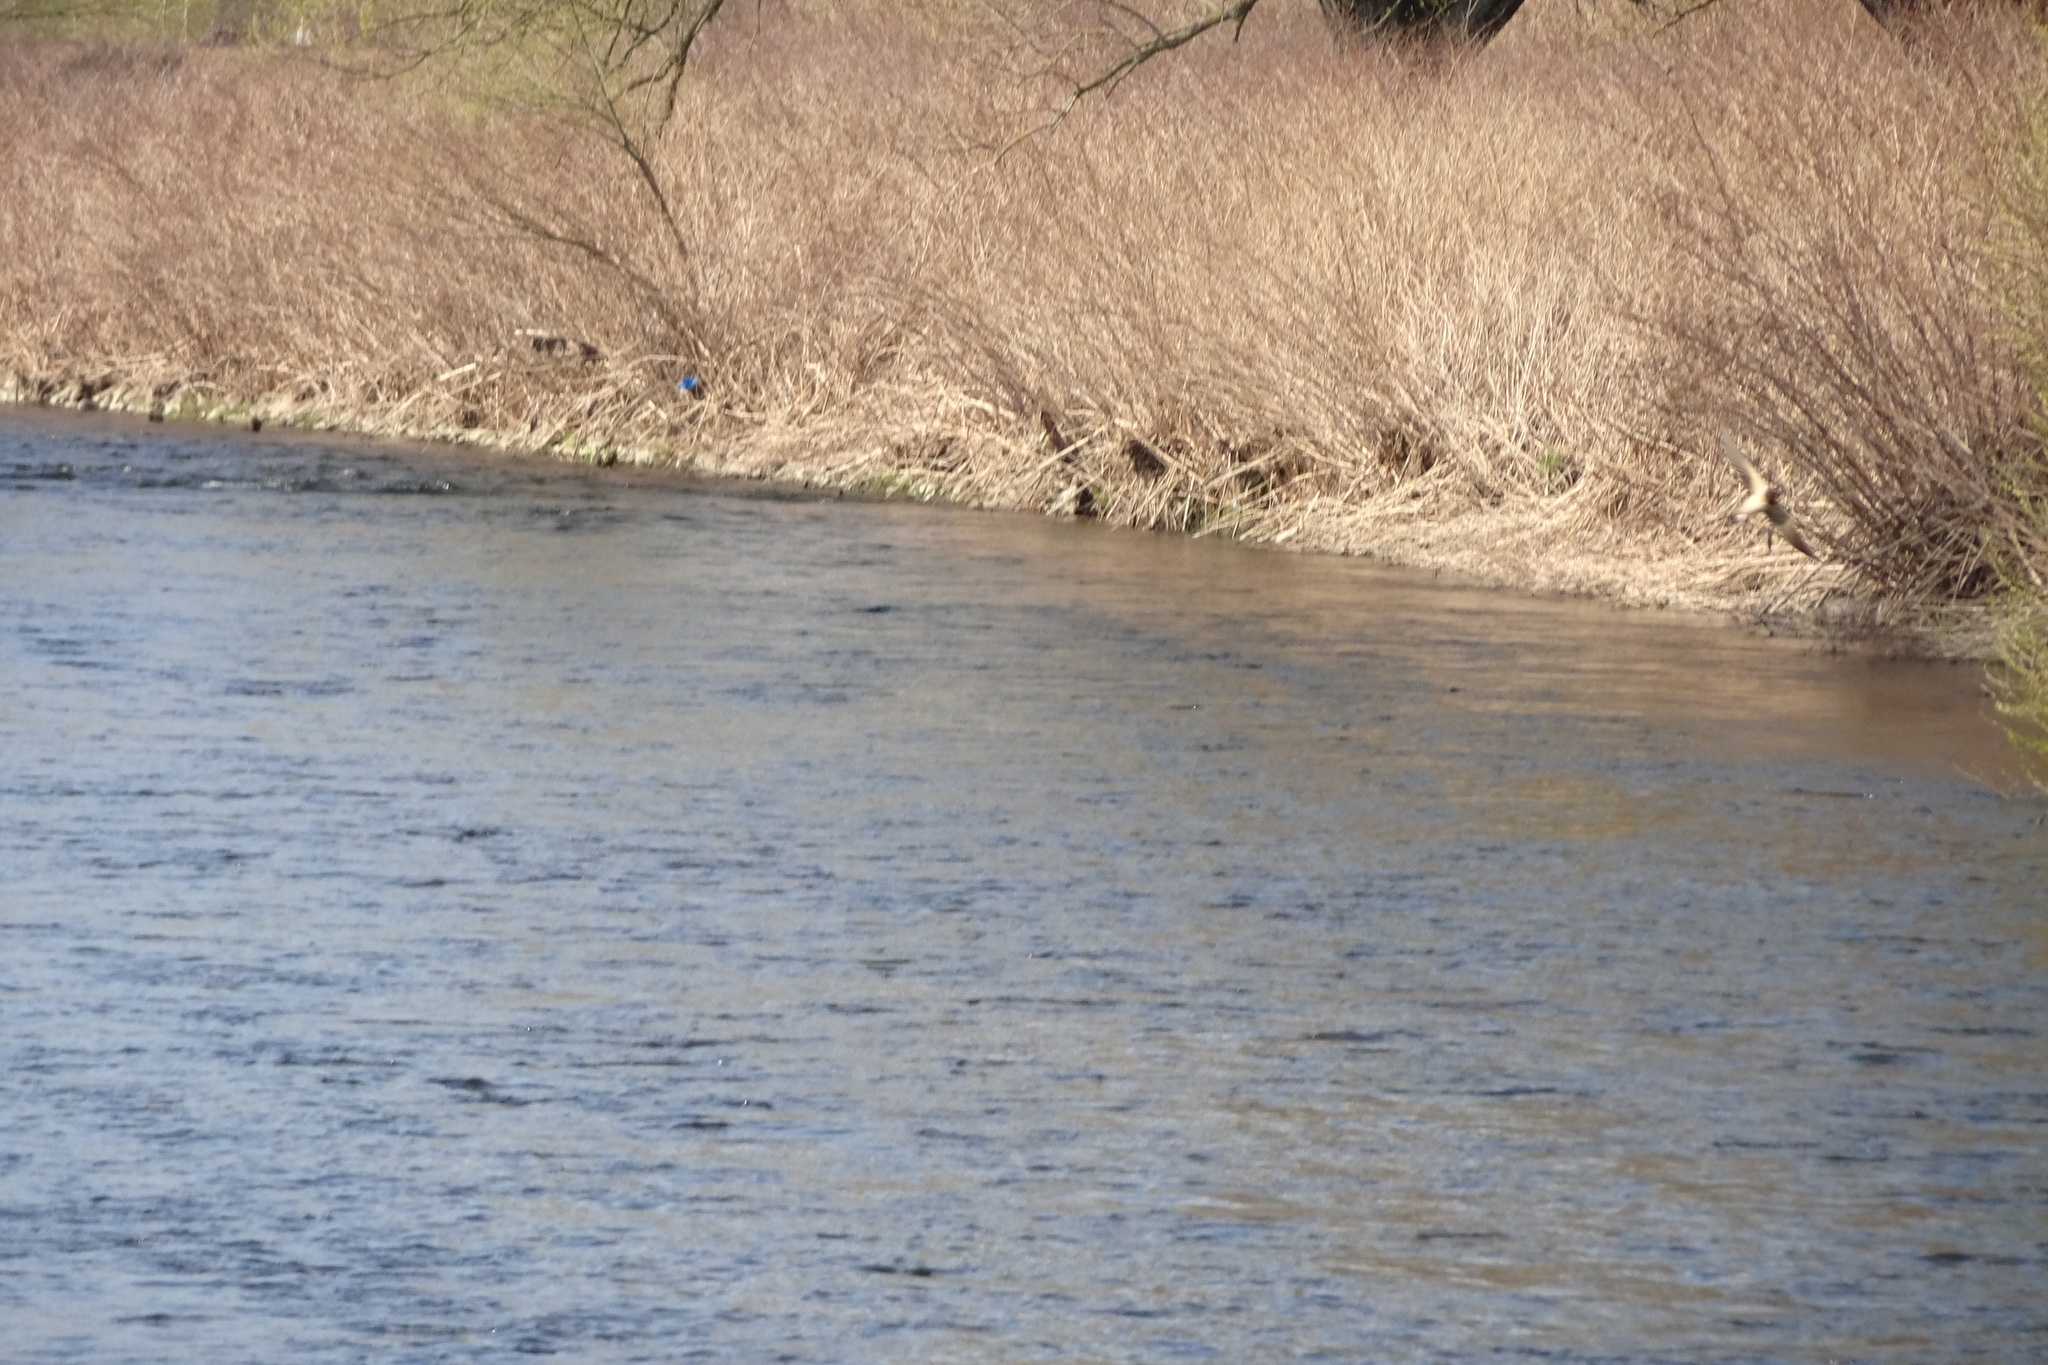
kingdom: Animalia
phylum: Chordata
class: Aves
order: Passeriformes
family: Hirundinidae
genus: Hirundo
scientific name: Hirundo rustica
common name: Barn swallow
